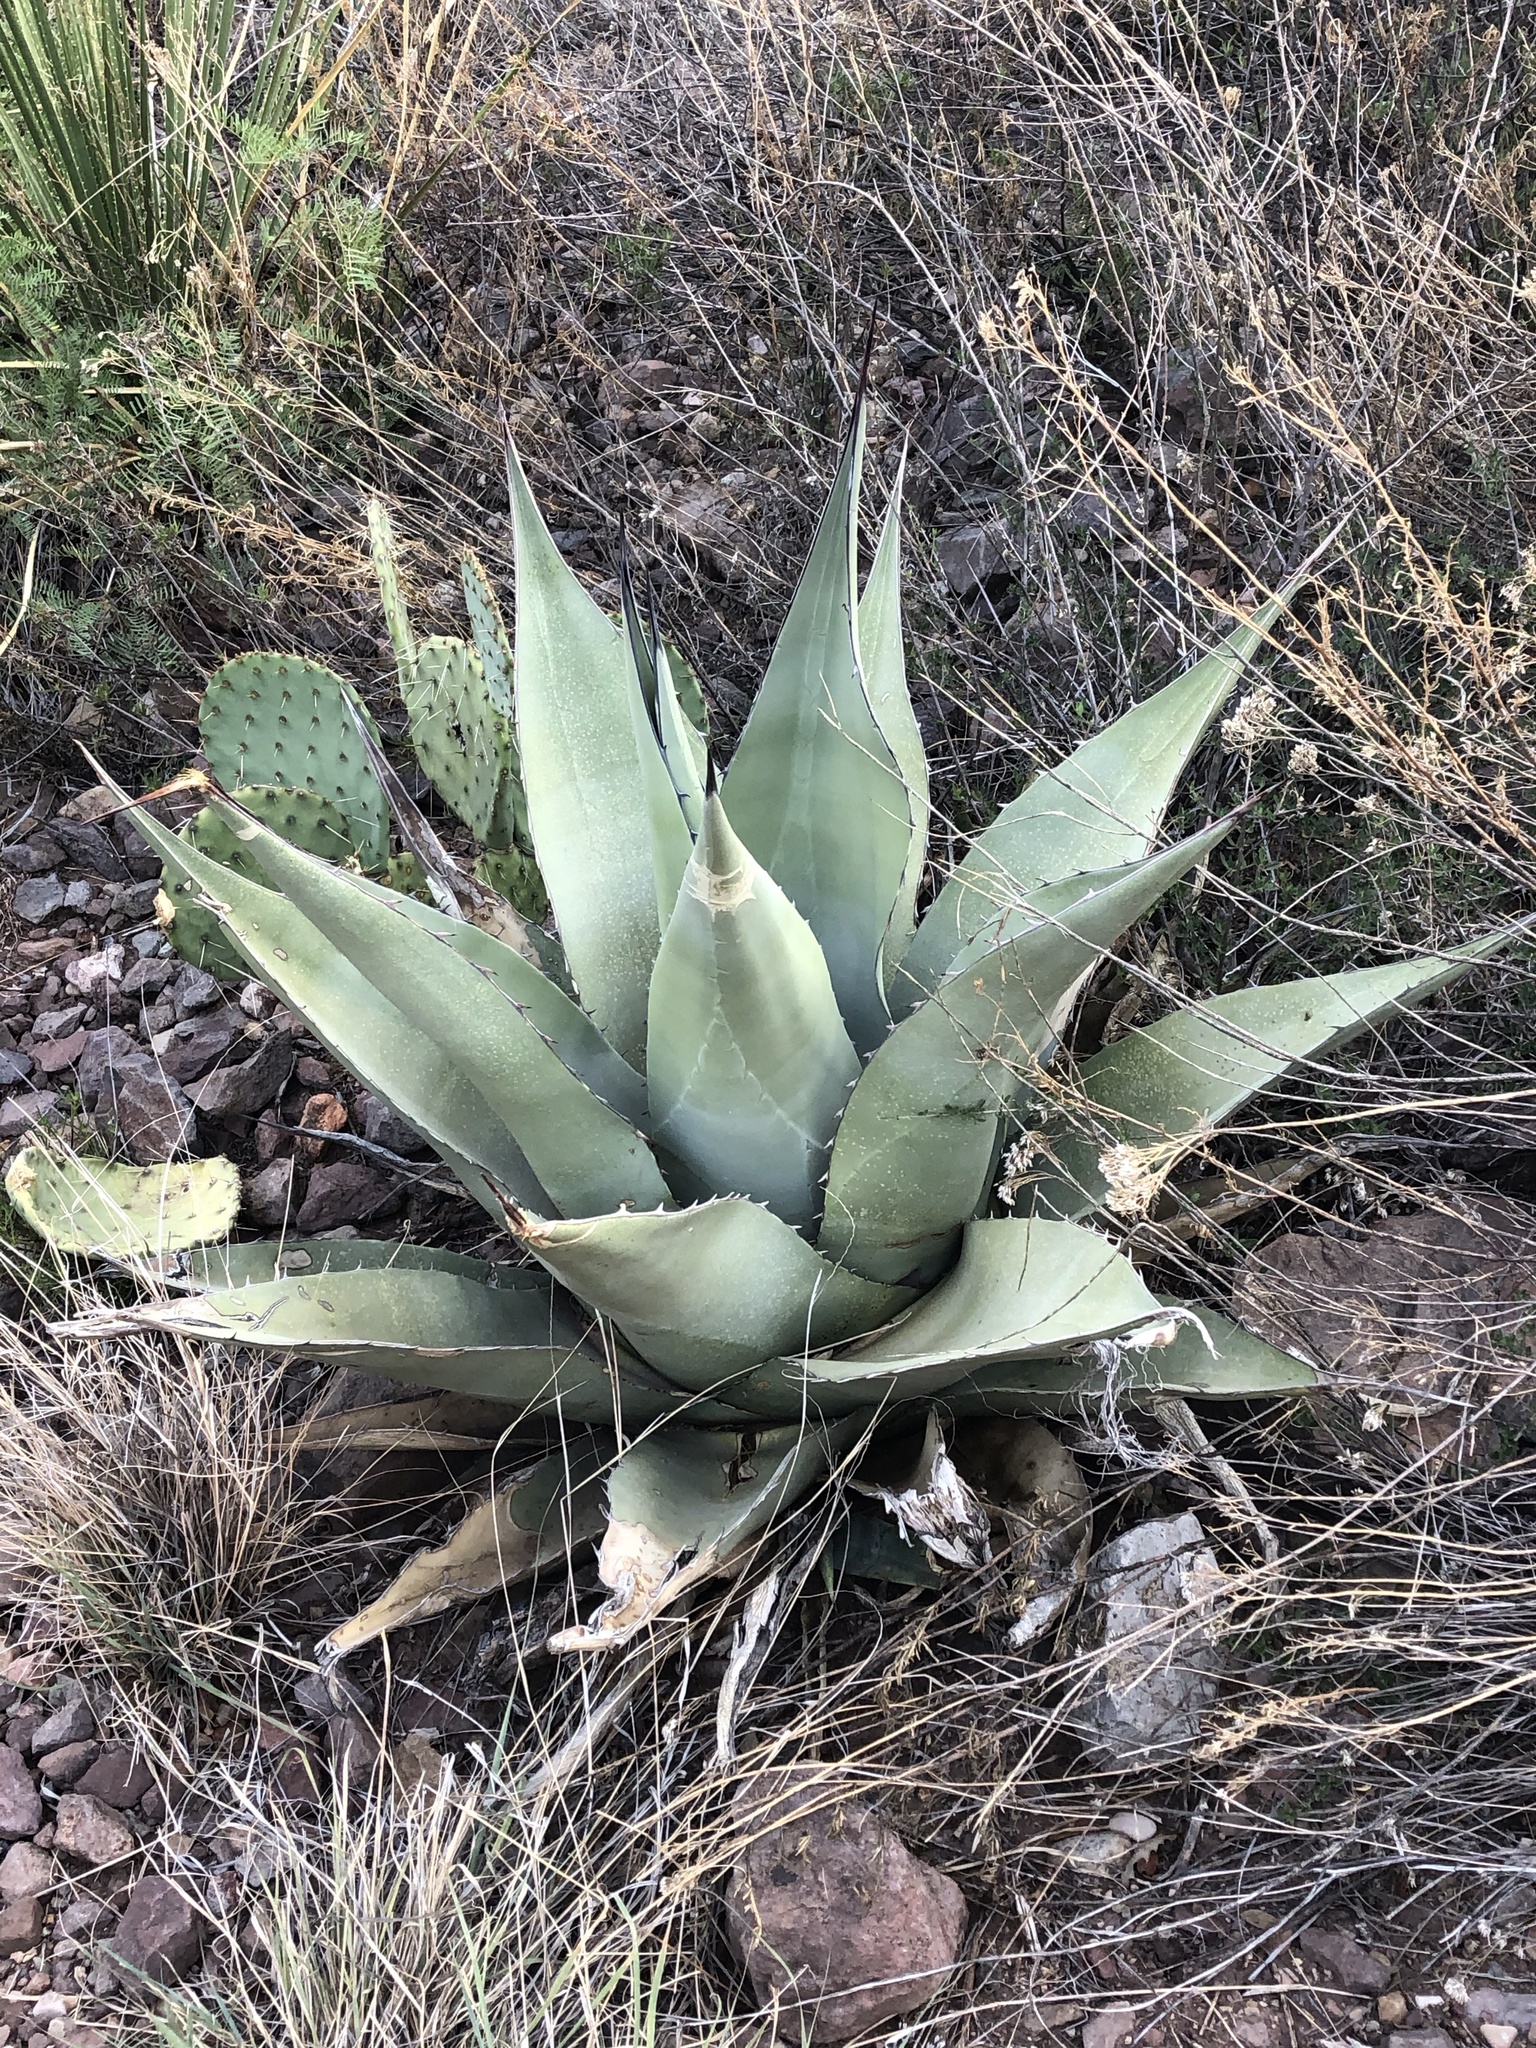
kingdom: Plantae
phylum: Tracheophyta
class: Liliopsida
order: Asparagales
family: Asparagaceae
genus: Agave
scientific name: Agave havardiana
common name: Havard agave
